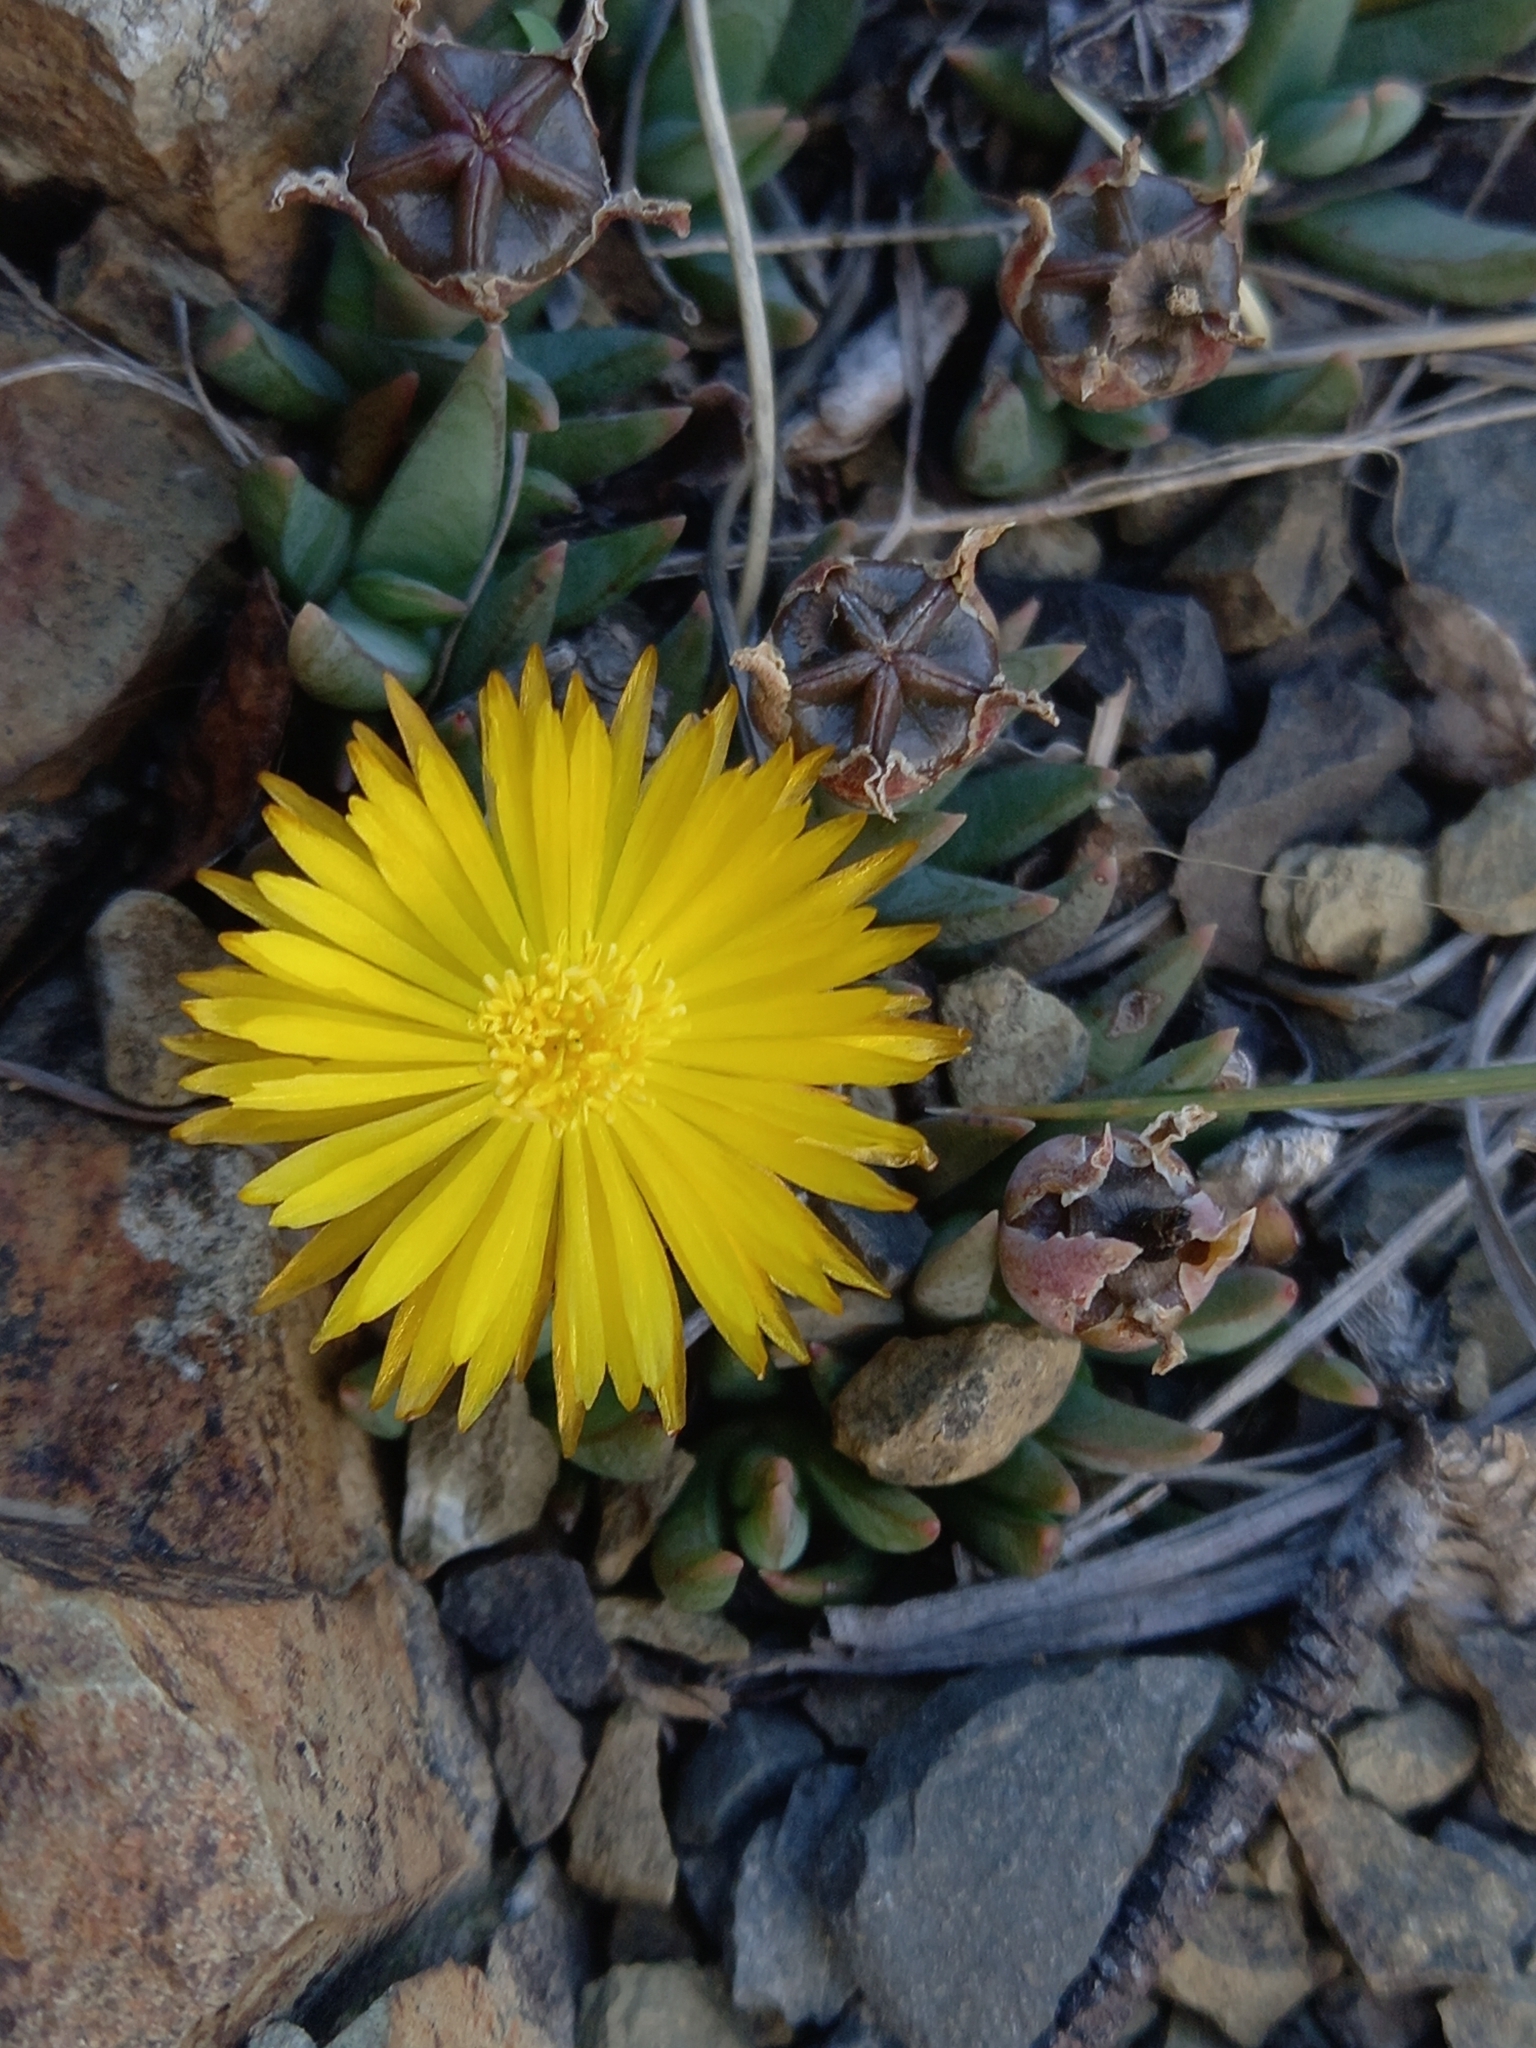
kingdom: Plantae
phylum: Tracheophyta
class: Magnoliopsida
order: Caryophyllales
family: Aizoaceae
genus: Bergeranthus
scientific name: Bergeranthus nanus
